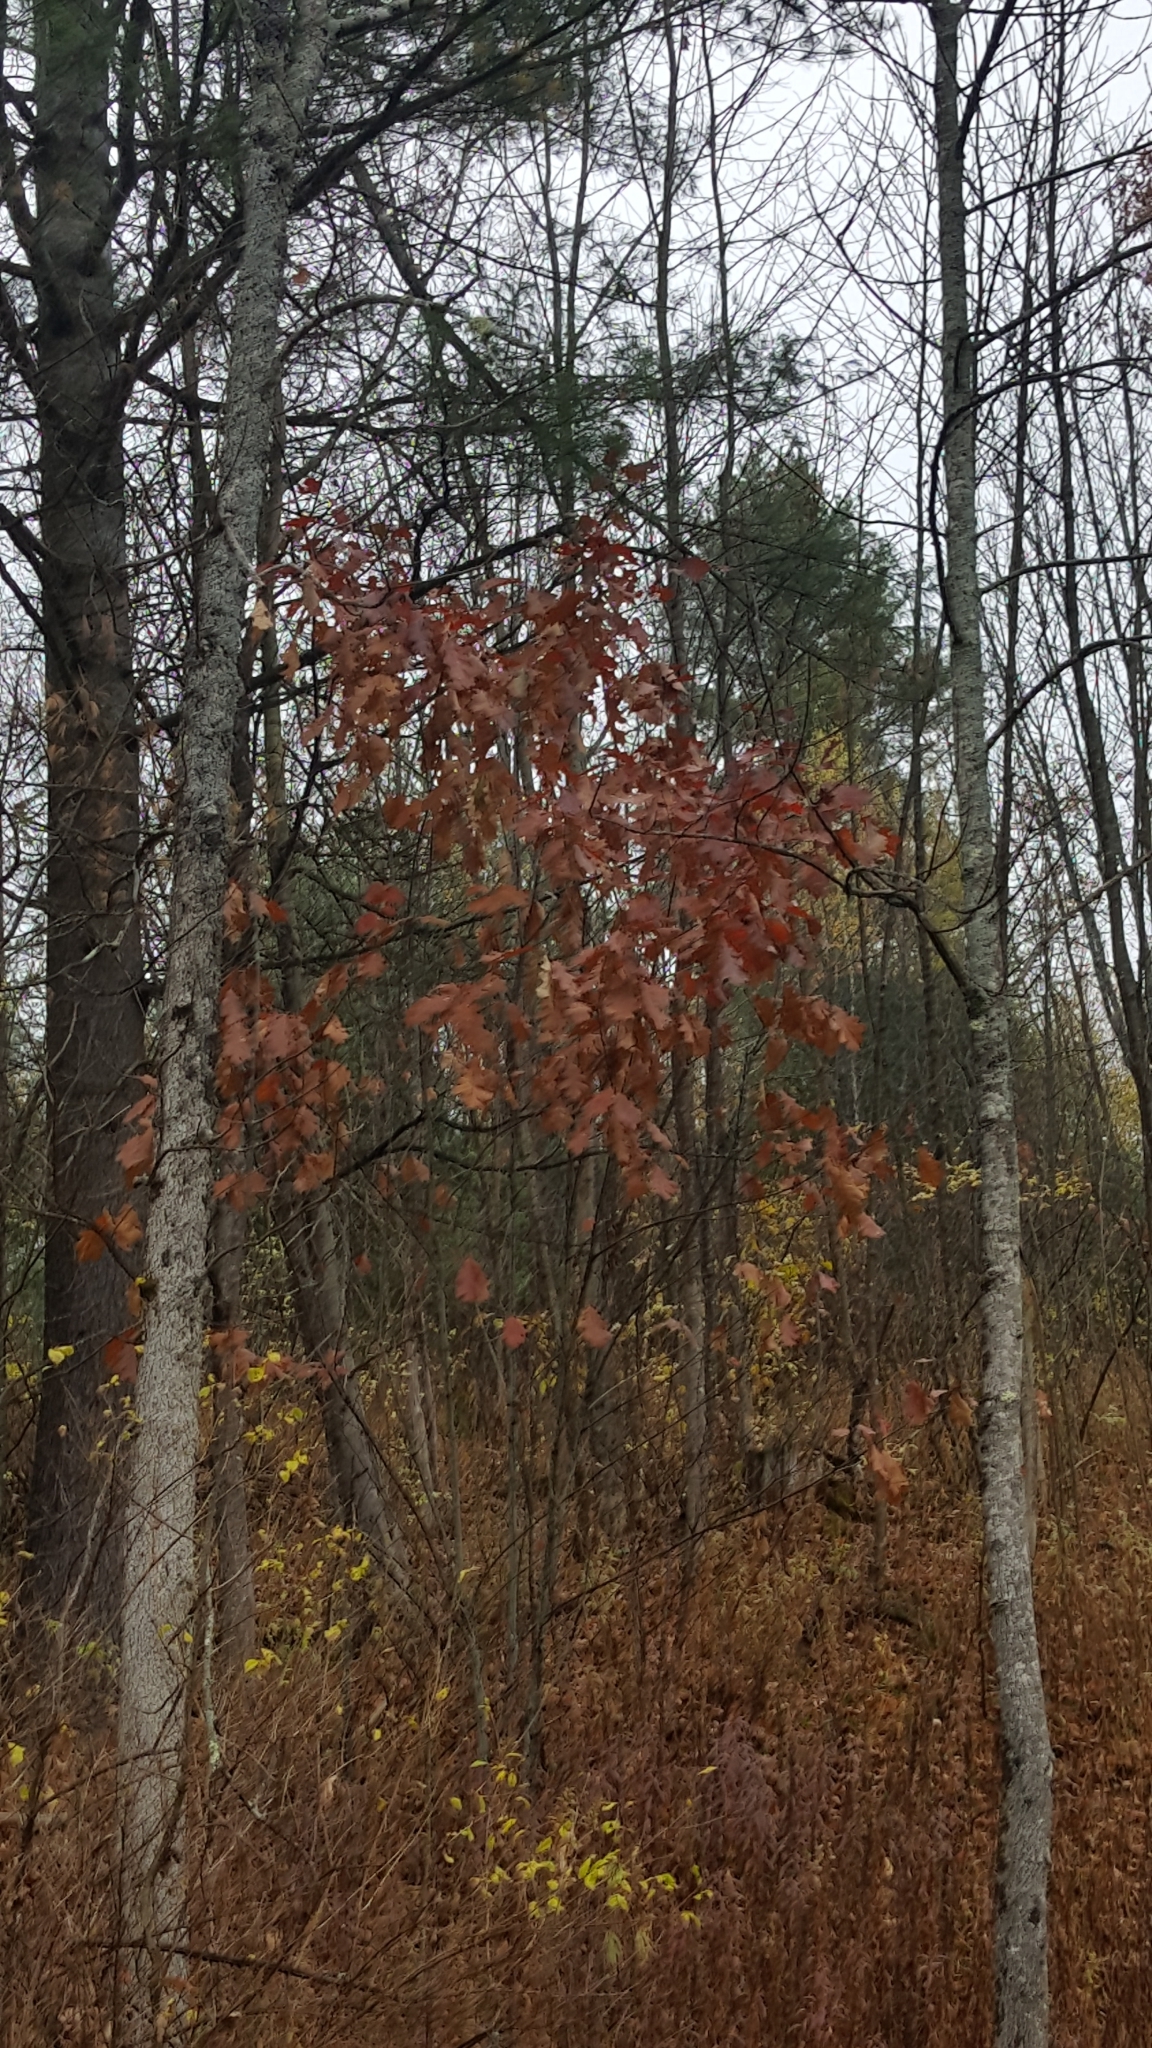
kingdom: Plantae
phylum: Tracheophyta
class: Magnoliopsida
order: Fagales
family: Fagaceae
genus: Quercus
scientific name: Quercus rubra
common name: Red oak
